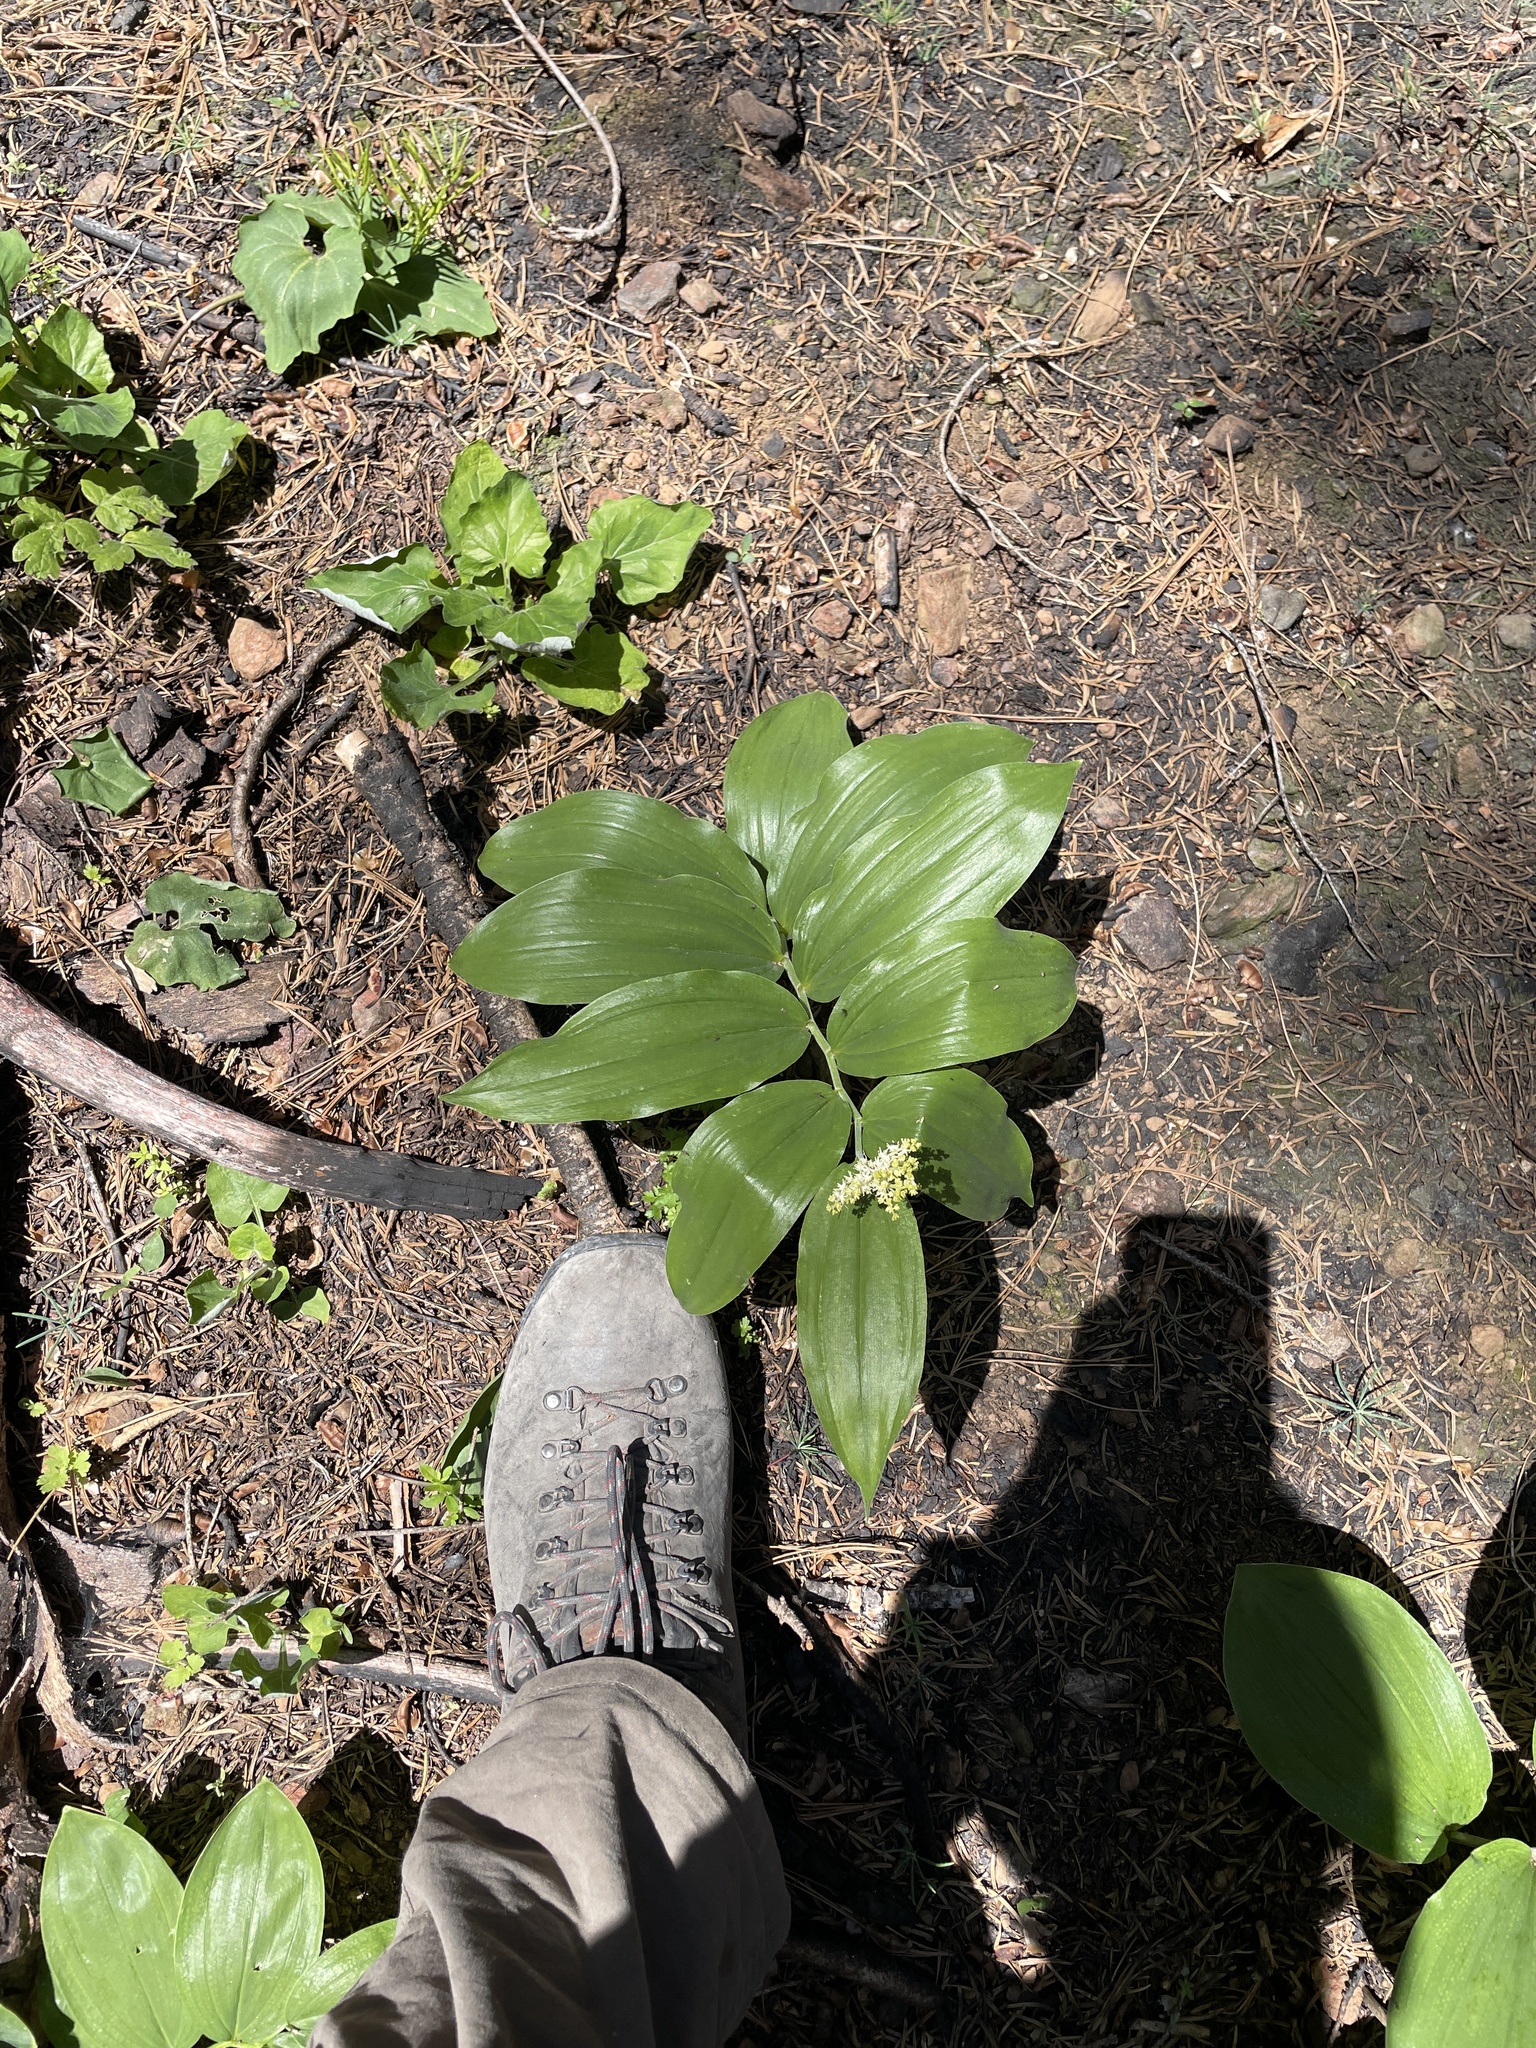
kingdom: Plantae
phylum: Tracheophyta
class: Liliopsida
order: Asparagales
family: Asparagaceae
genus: Maianthemum
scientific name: Maianthemum racemosum
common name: False spikenard
